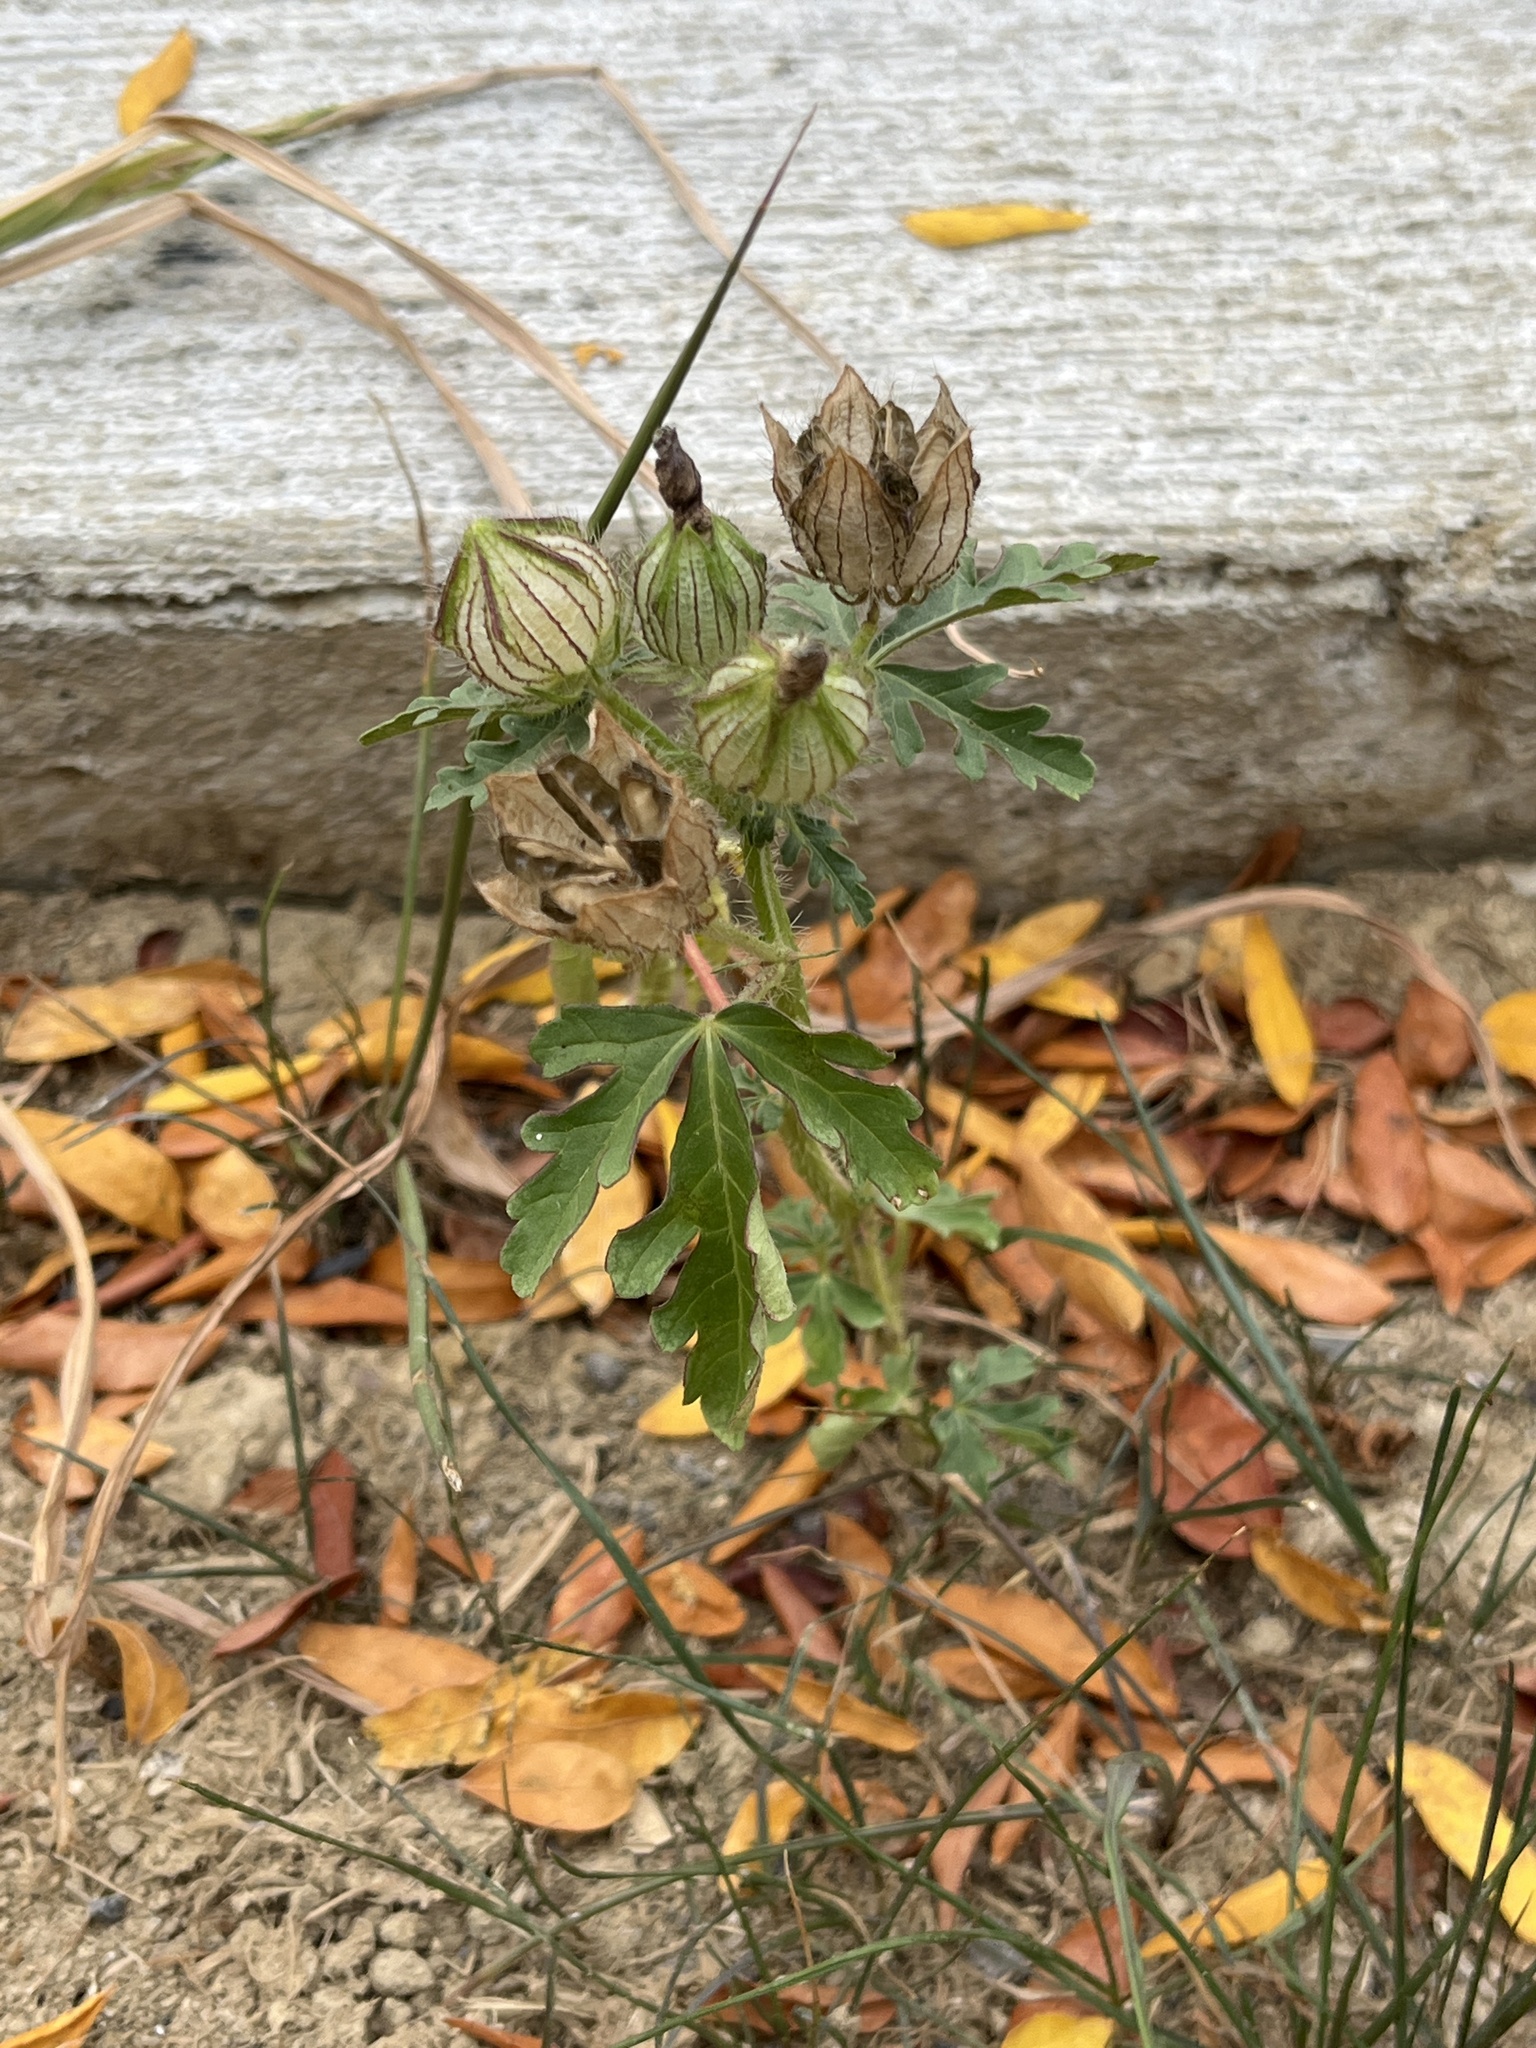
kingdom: Plantae
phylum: Tracheophyta
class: Magnoliopsida
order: Malvales
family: Malvaceae
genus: Hibiscus
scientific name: Hibiscus trionum
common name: Bladder ketmia
